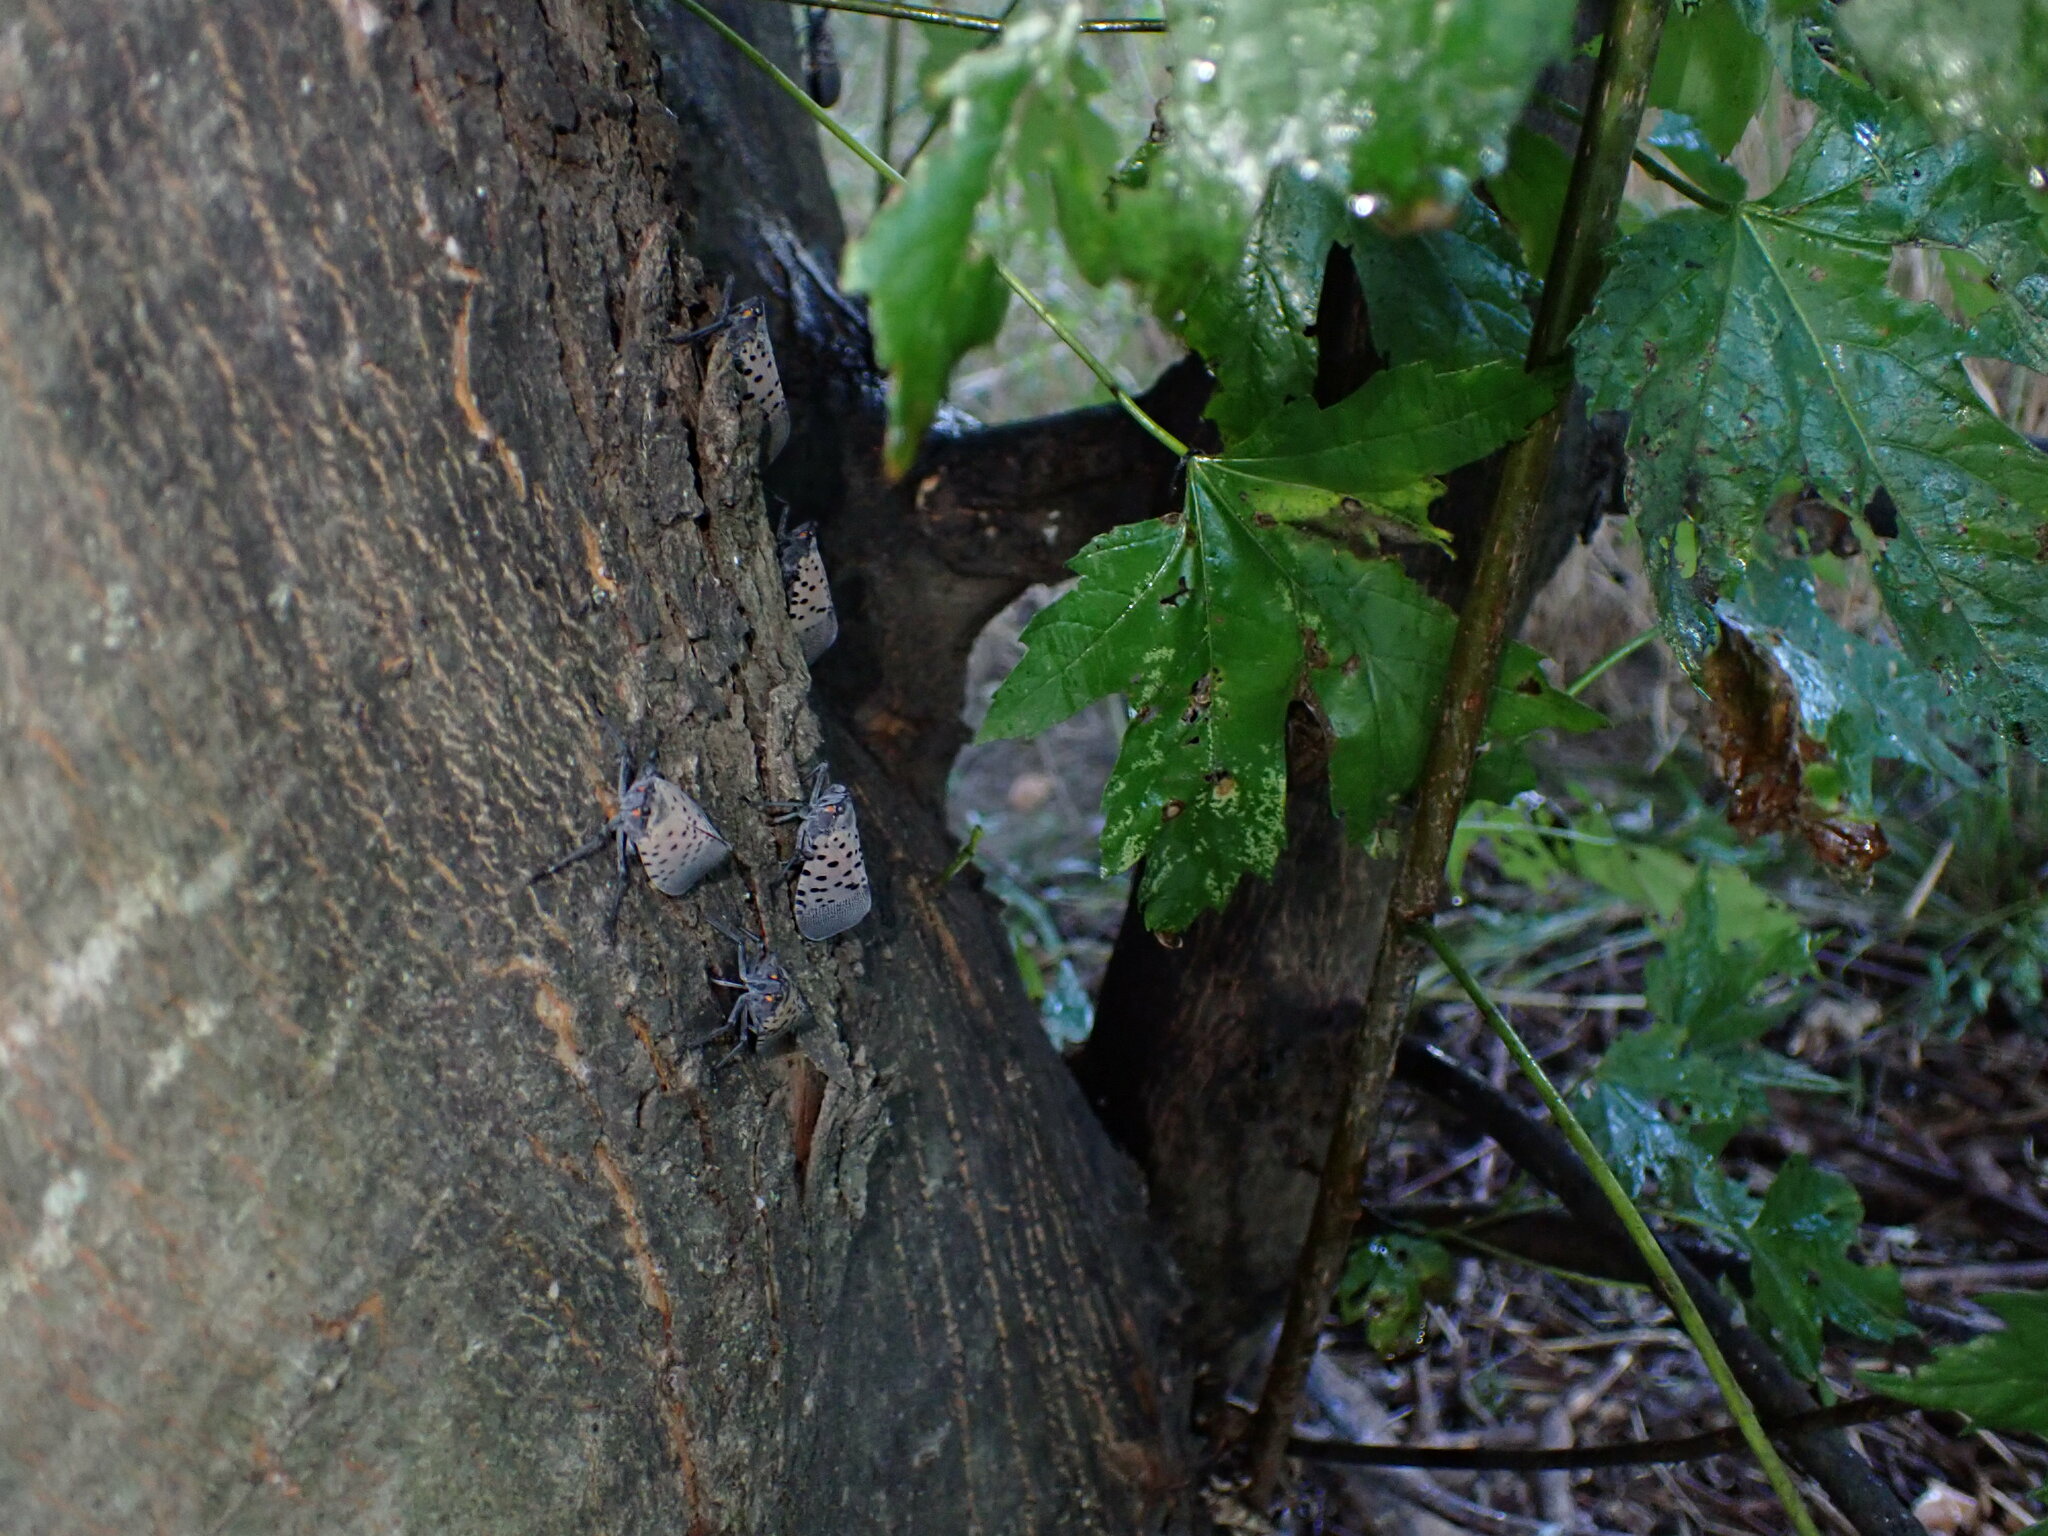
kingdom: Animalia
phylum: Arthropoda
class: Insecta
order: Hemiptera
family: Fulgoridae
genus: Lycorma
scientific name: Lycorma delicatula
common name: Spotted lanternfly
